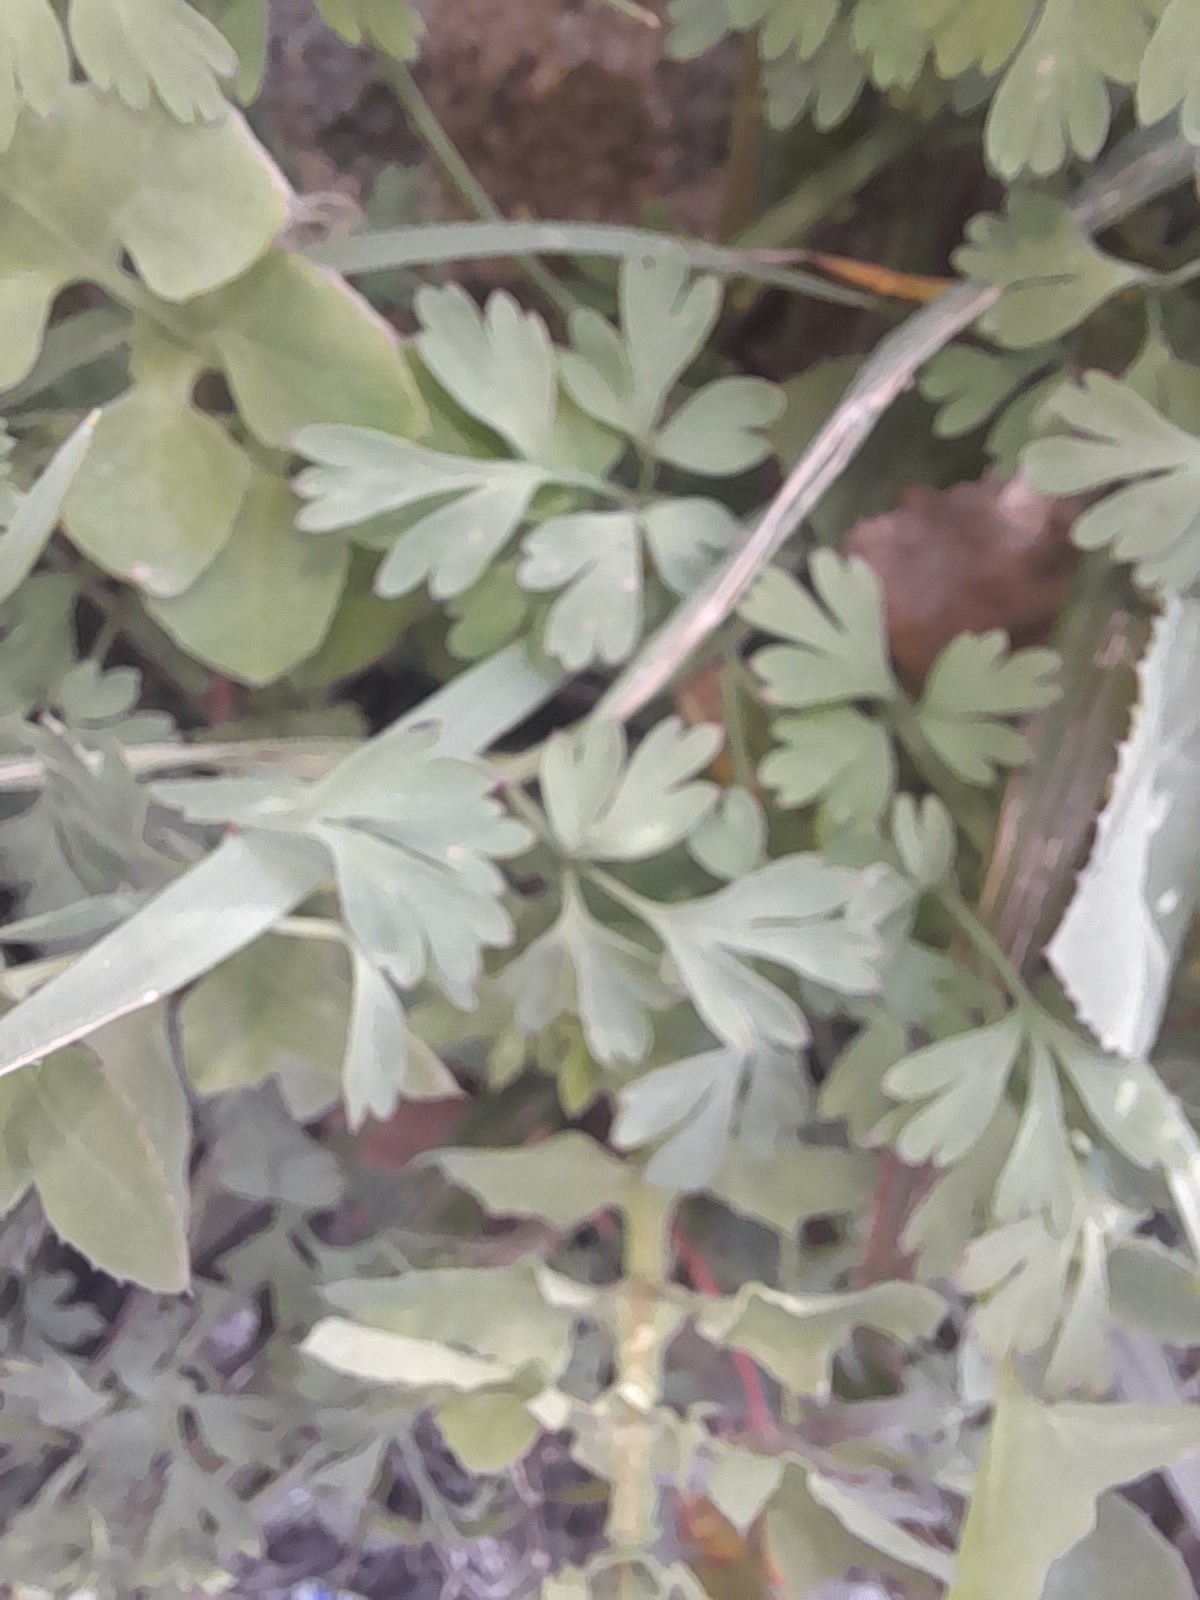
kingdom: Plantae
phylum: Tracheophyta
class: Magnoliopsida
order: Ranunculales
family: Papaveraceae
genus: Fumaria
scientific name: Fumaria capreolata
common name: White ramping-fumitory
